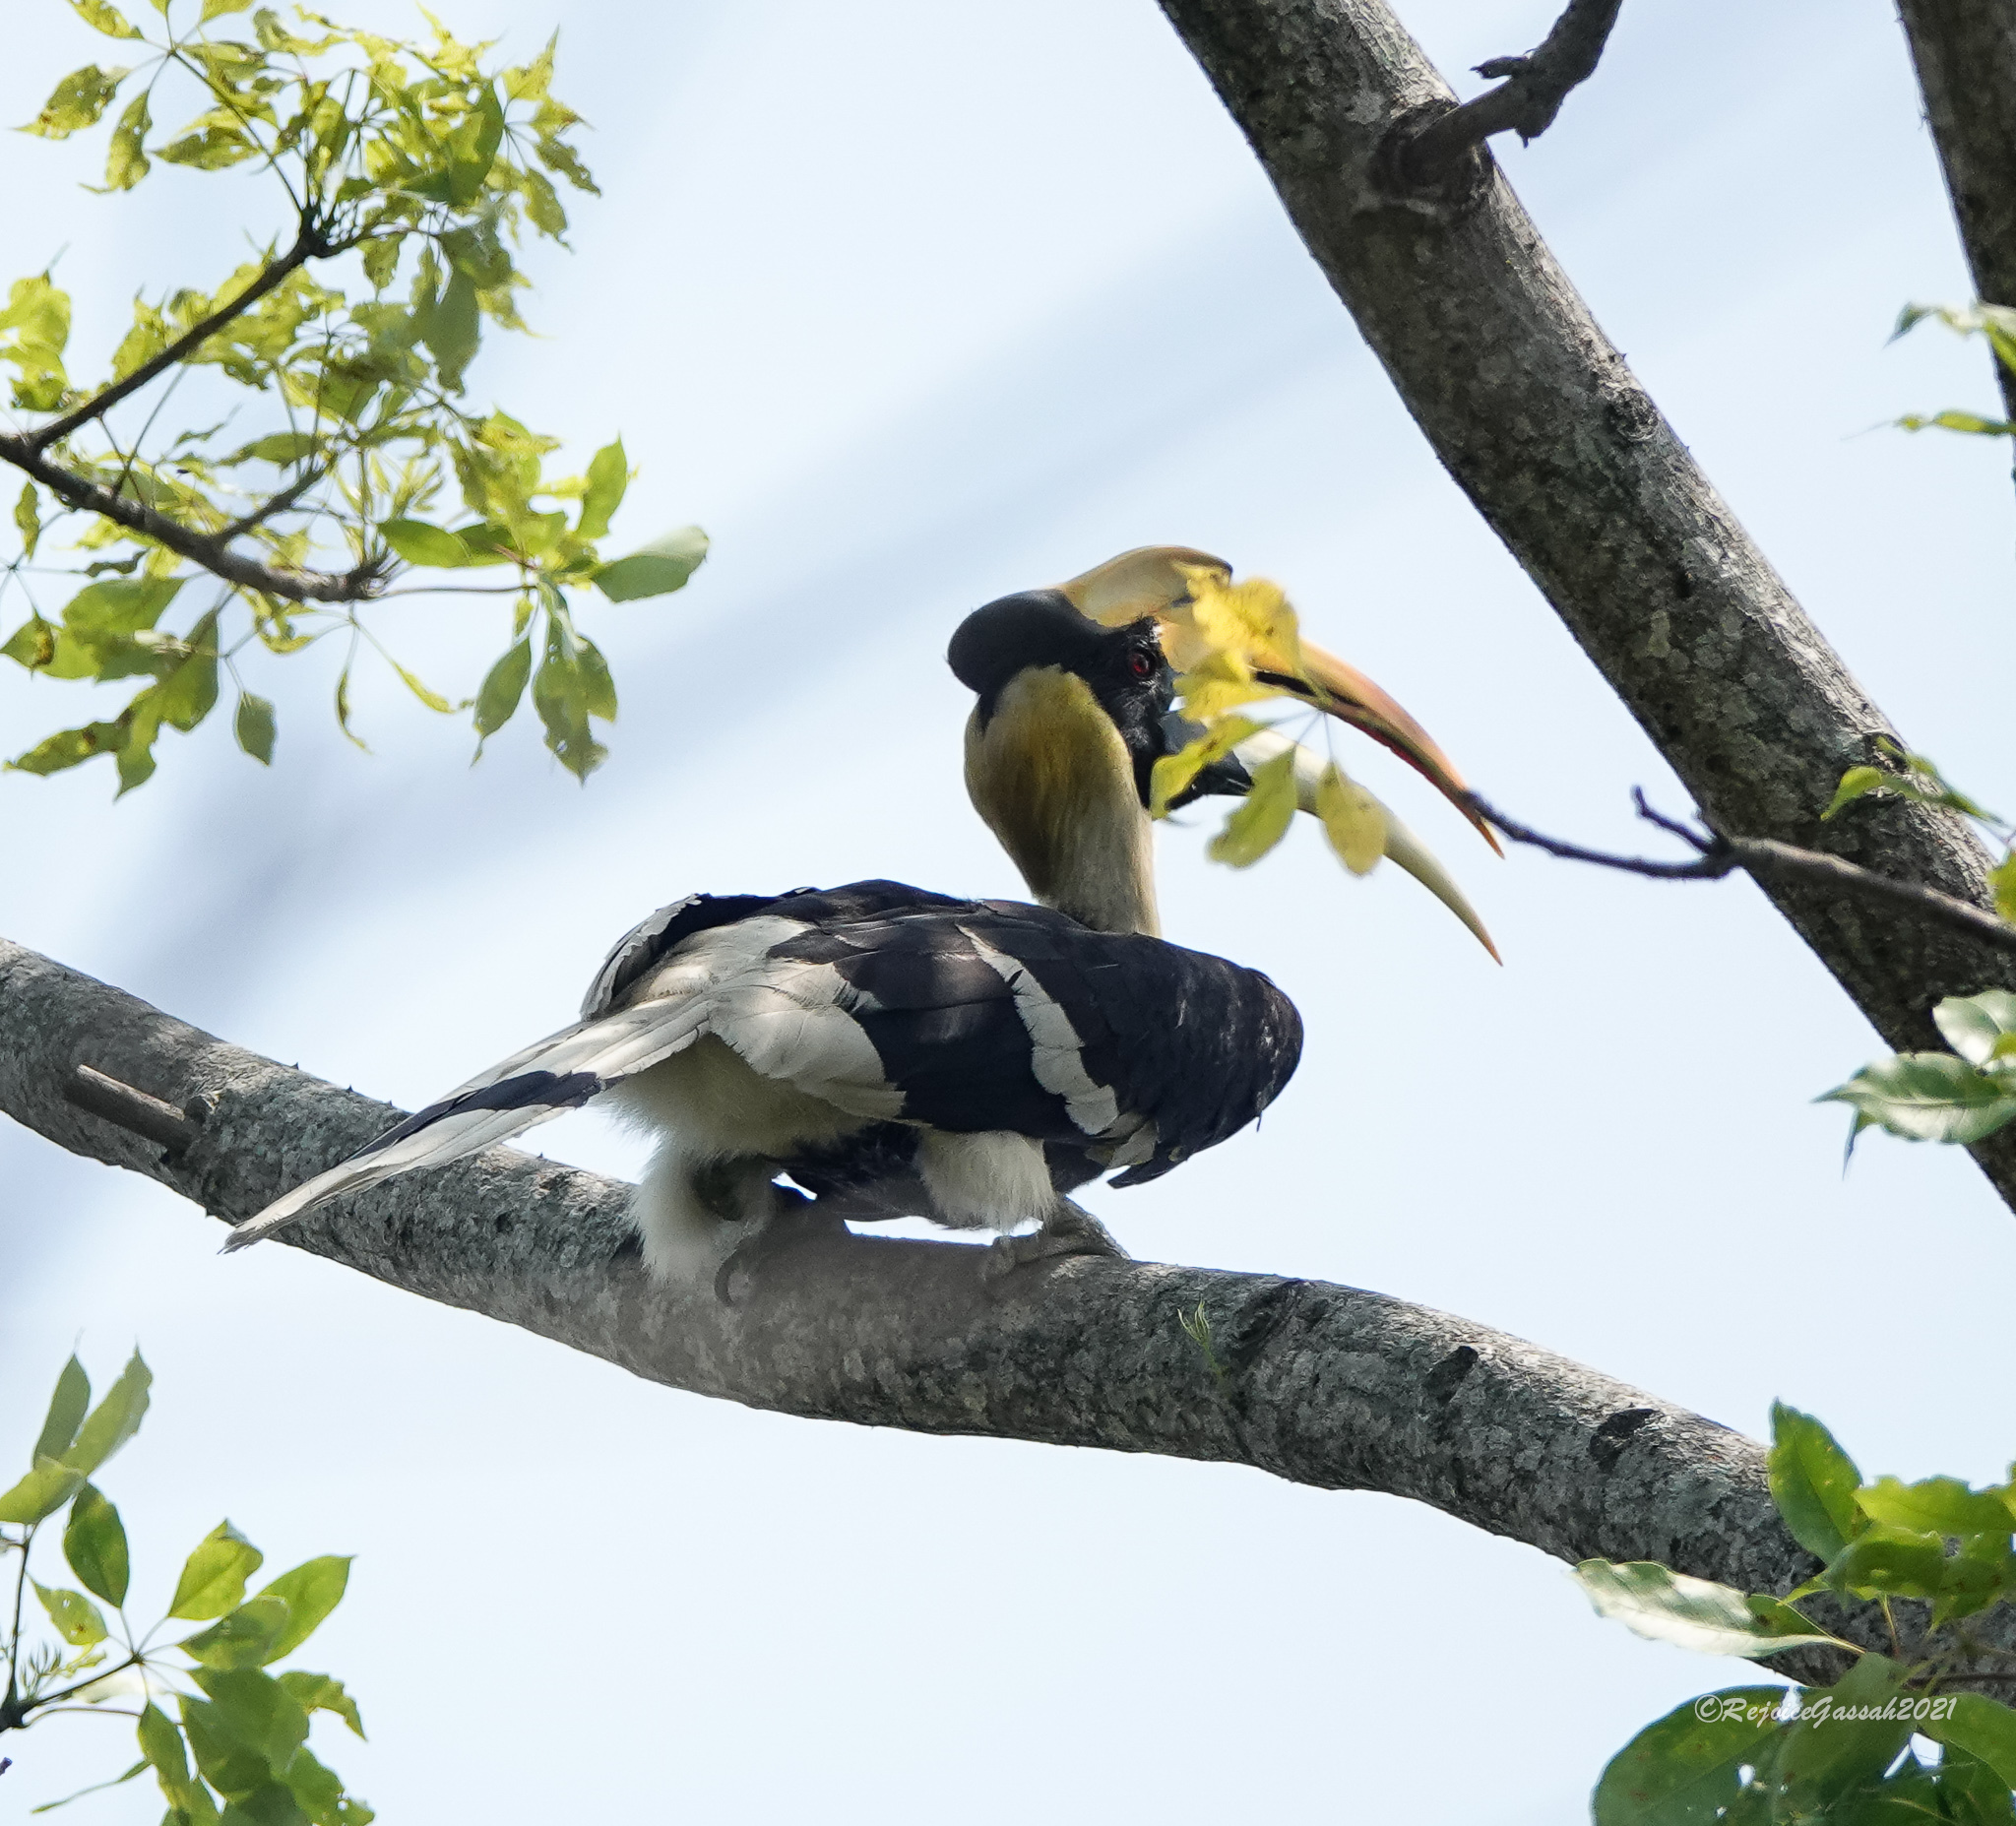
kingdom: Animalia
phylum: Chordata
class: Aves
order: Bucerotiformes
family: Bucerotidae
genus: Buceros
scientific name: Buceros bicornis
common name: Great hornbill
